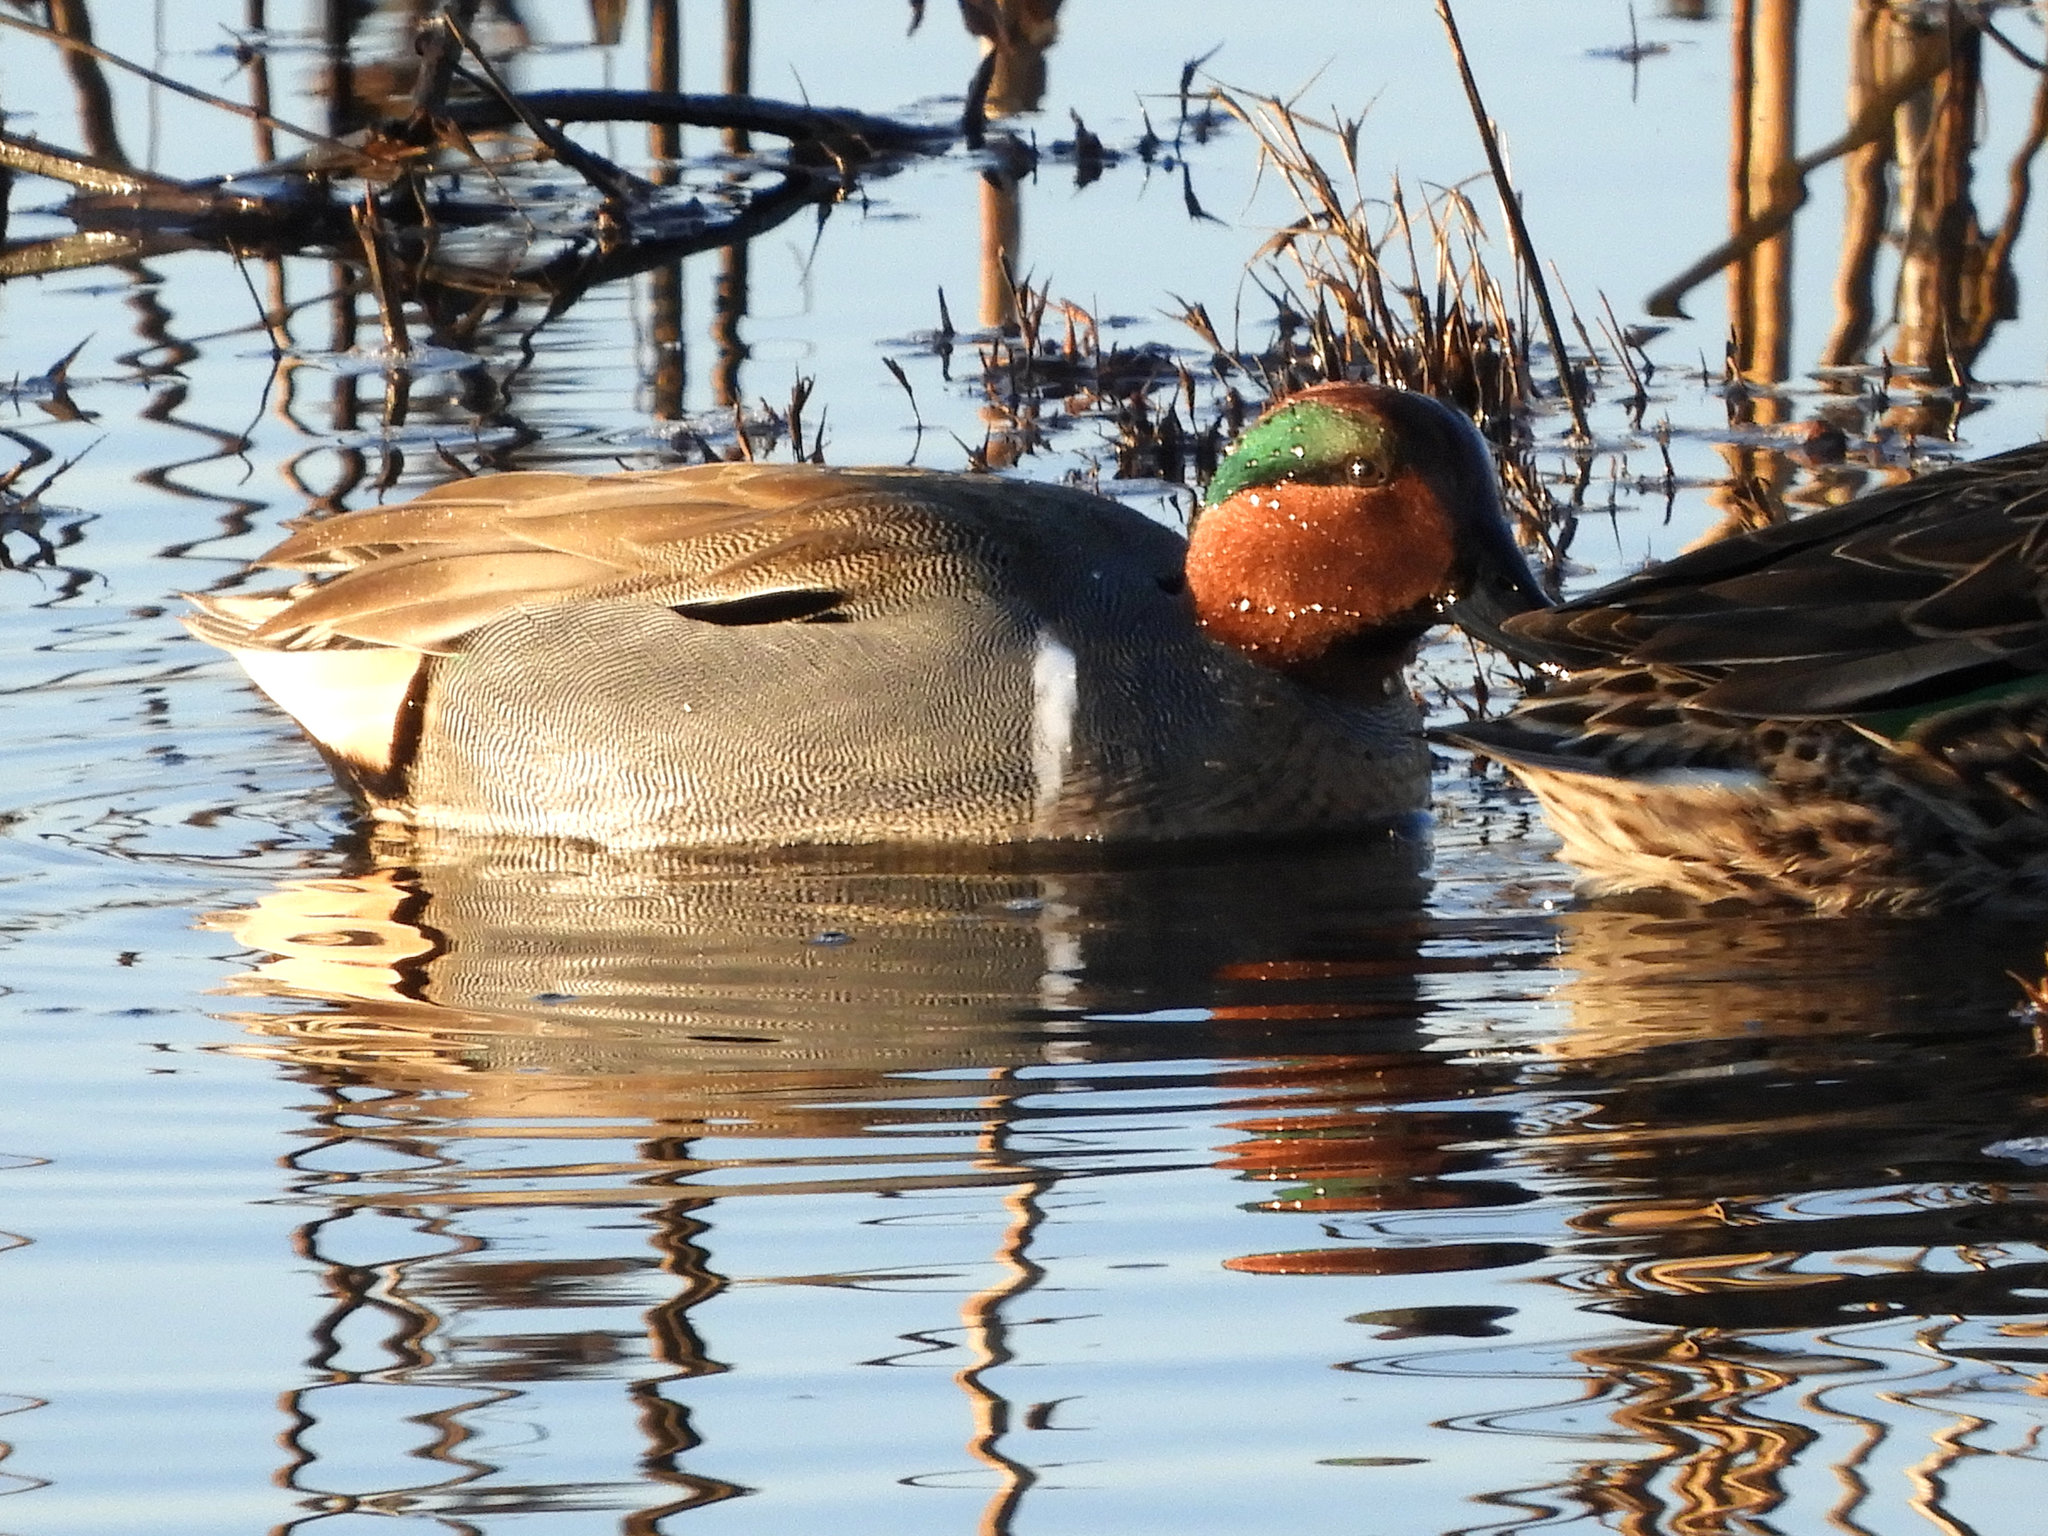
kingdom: Animalia
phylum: Chordata
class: Aves
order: Anseriformes
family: Anatidae
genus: Anas
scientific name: Anas crecca
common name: Eurasian teal
